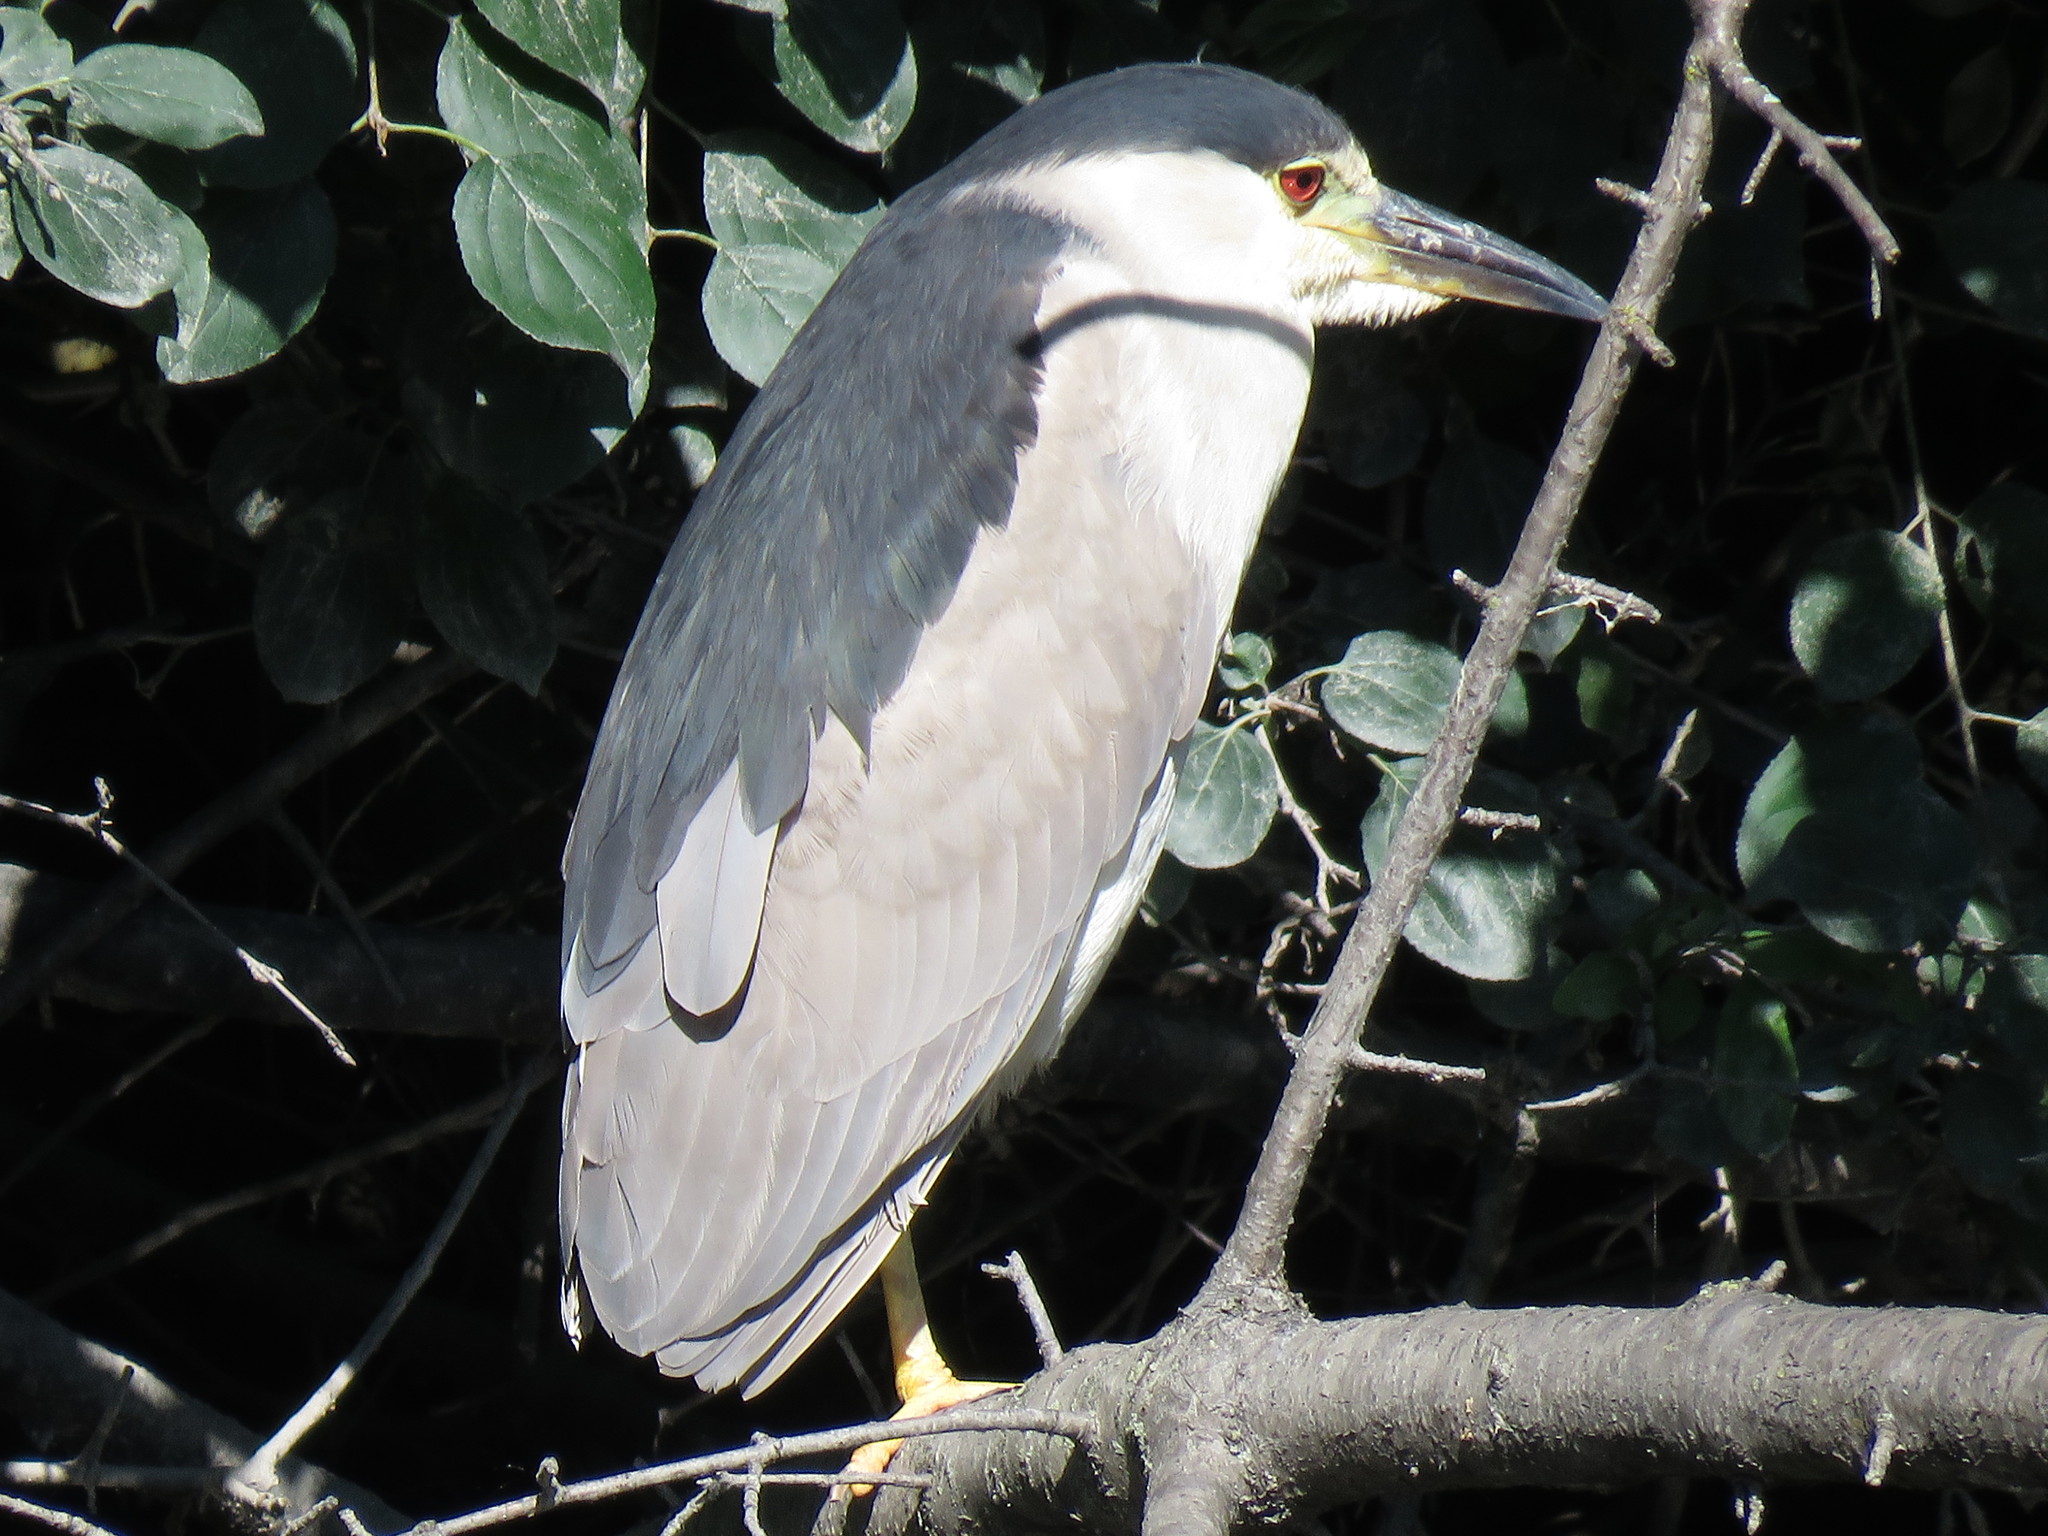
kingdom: Animalia
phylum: Chordata
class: Aves
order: Pelecaniformes
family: Ardeidae
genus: Nycticorax
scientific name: Nycticorax nycticorax
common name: Black-crowned night heron
